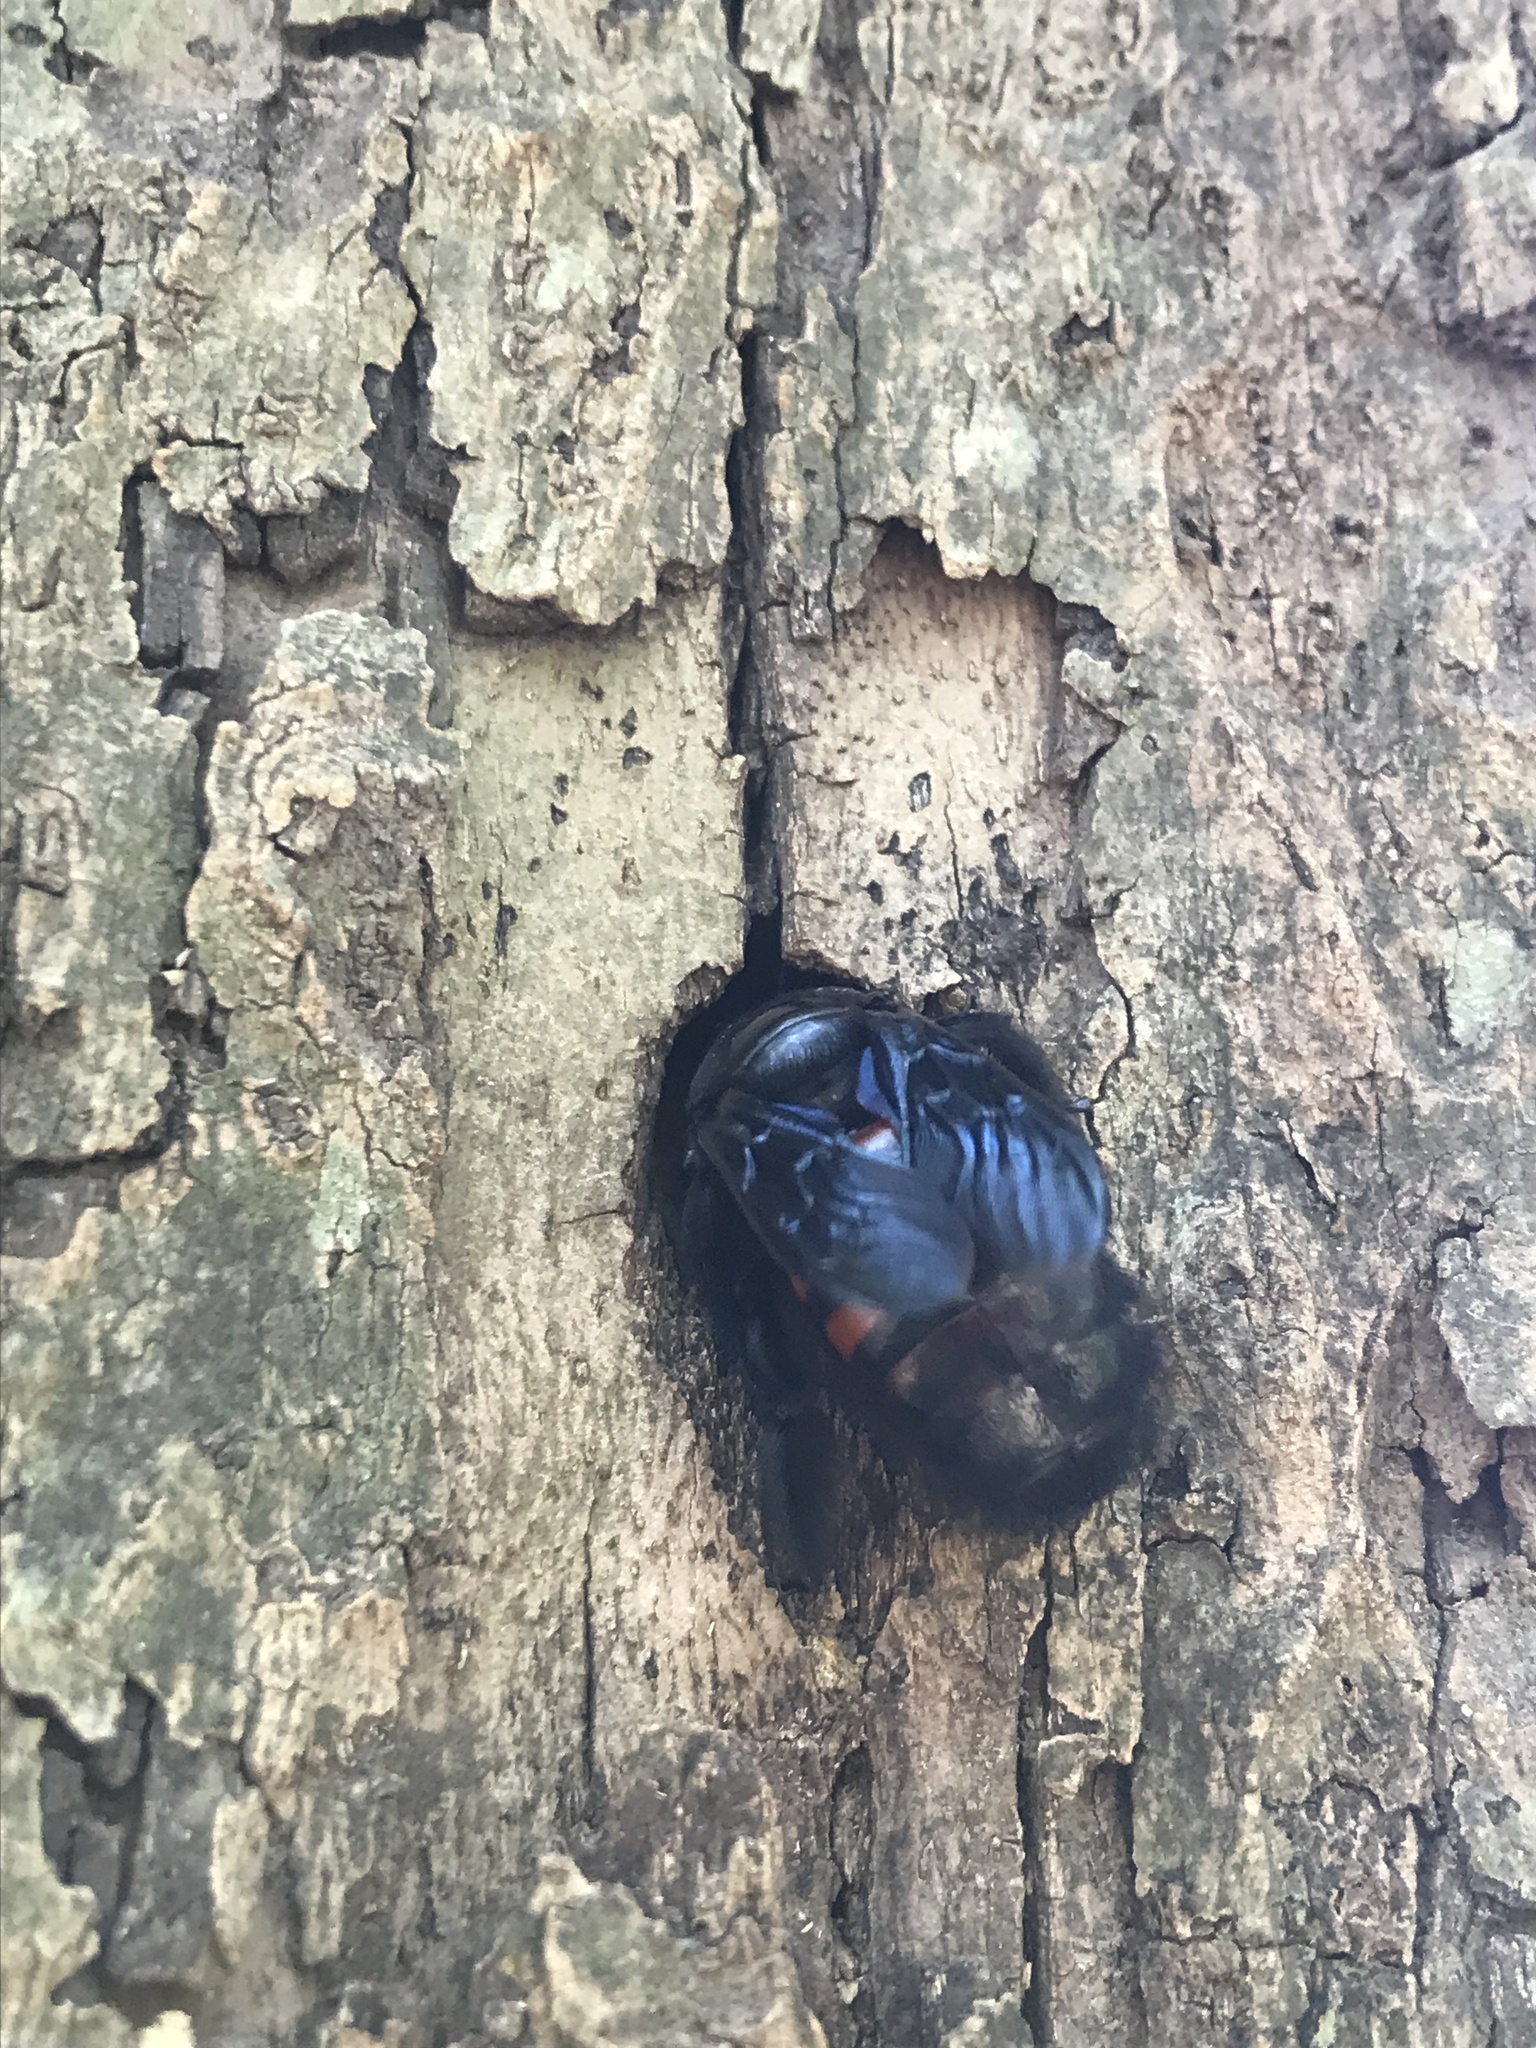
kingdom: Animalia
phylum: Arthropoda
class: Insecta
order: Hymenoptera
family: Apidae
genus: Xylocopa
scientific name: Xylocopa frontalis
